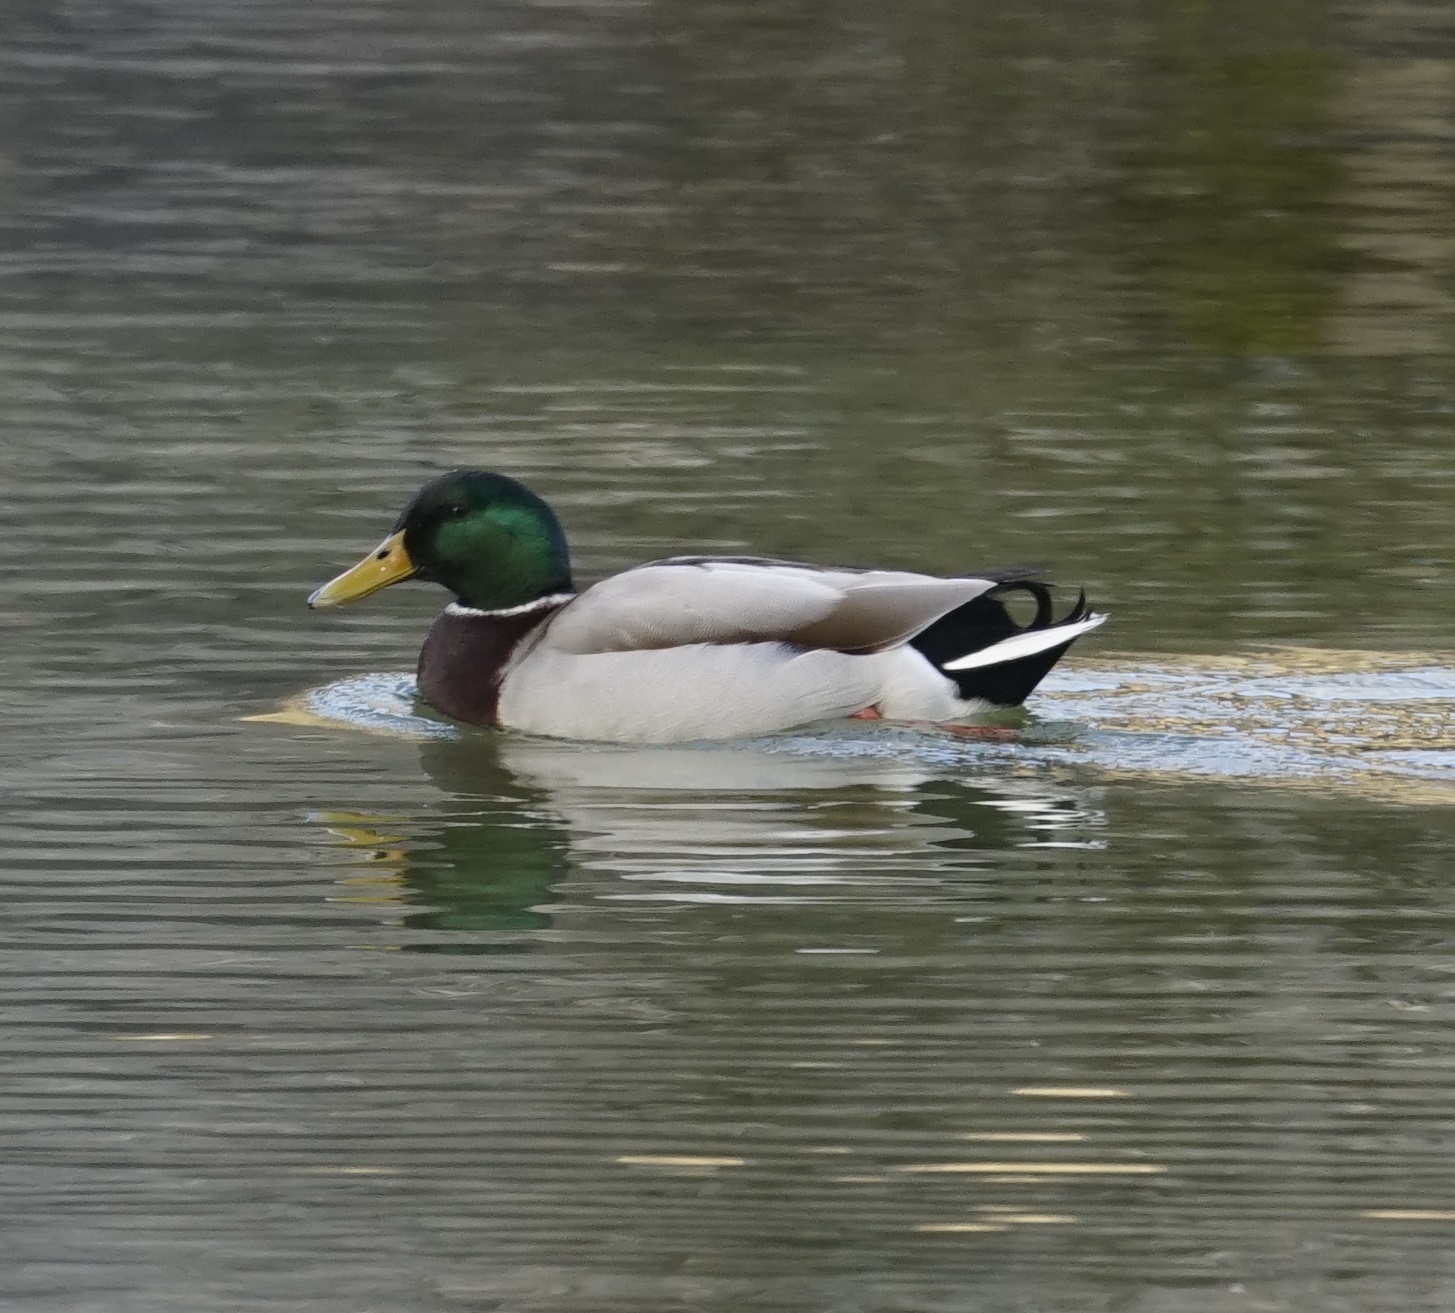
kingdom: Animalia
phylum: Chordata
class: Aves
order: Anseriformes
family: Anatidae
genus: Anas
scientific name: Anas platyrhynchos
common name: Mallard
